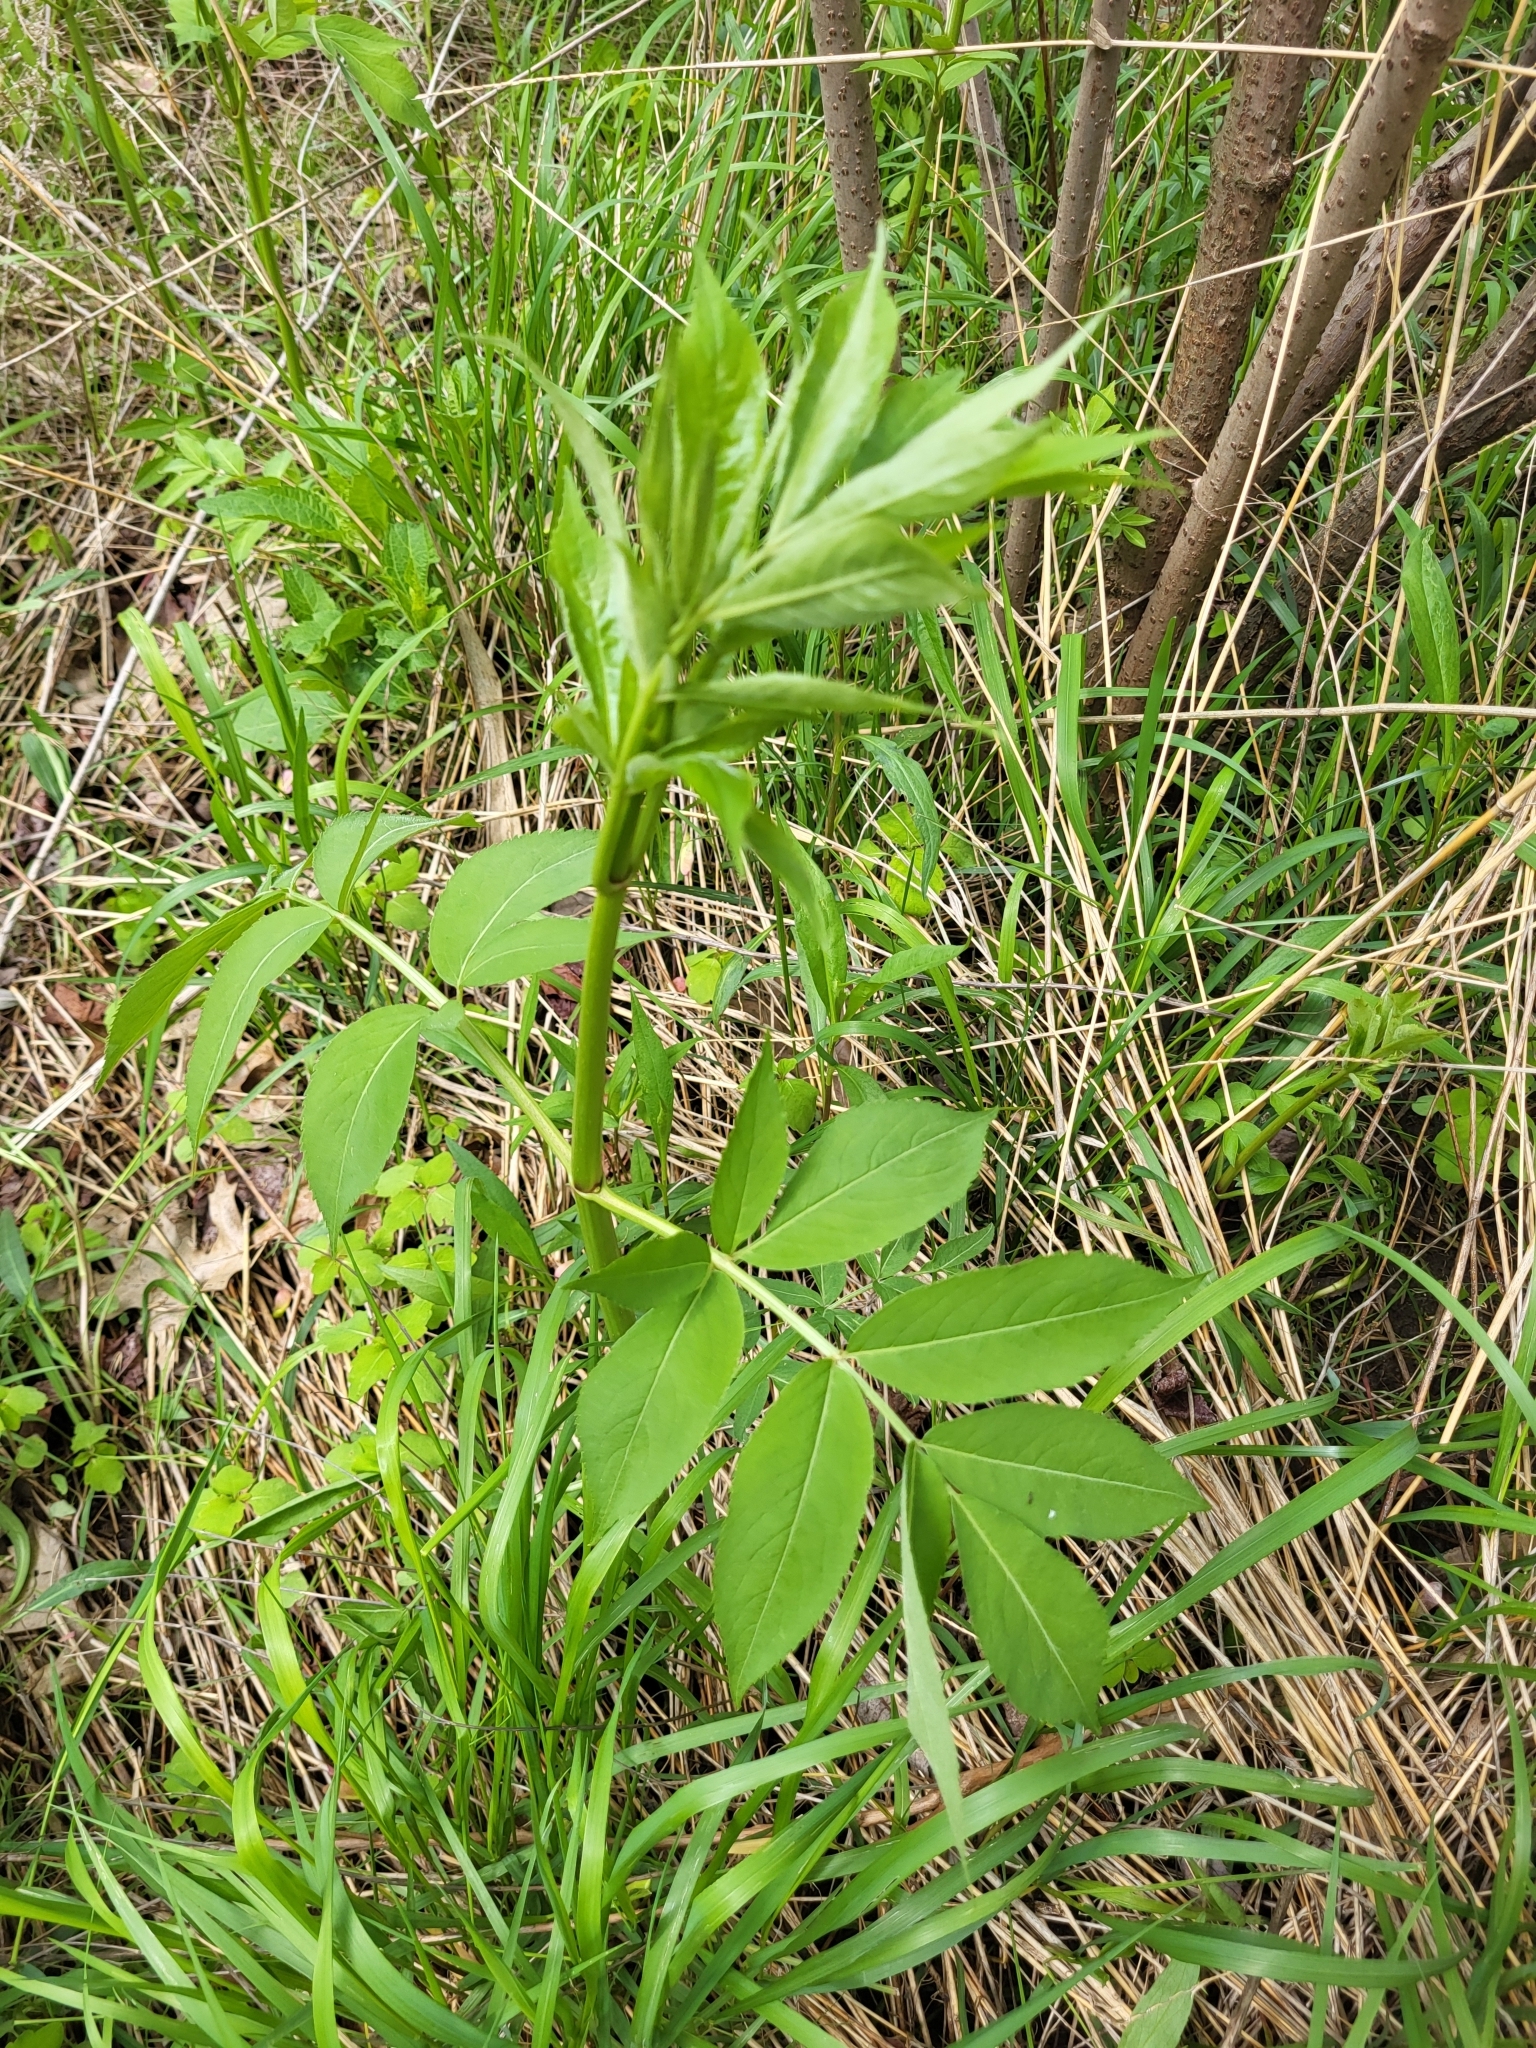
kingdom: Plantae
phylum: Tracheophyta
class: Magnoliopsida
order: Dipsacales
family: Viburnaceae
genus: Sambucus
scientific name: Sambucus canadensis
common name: American elder
